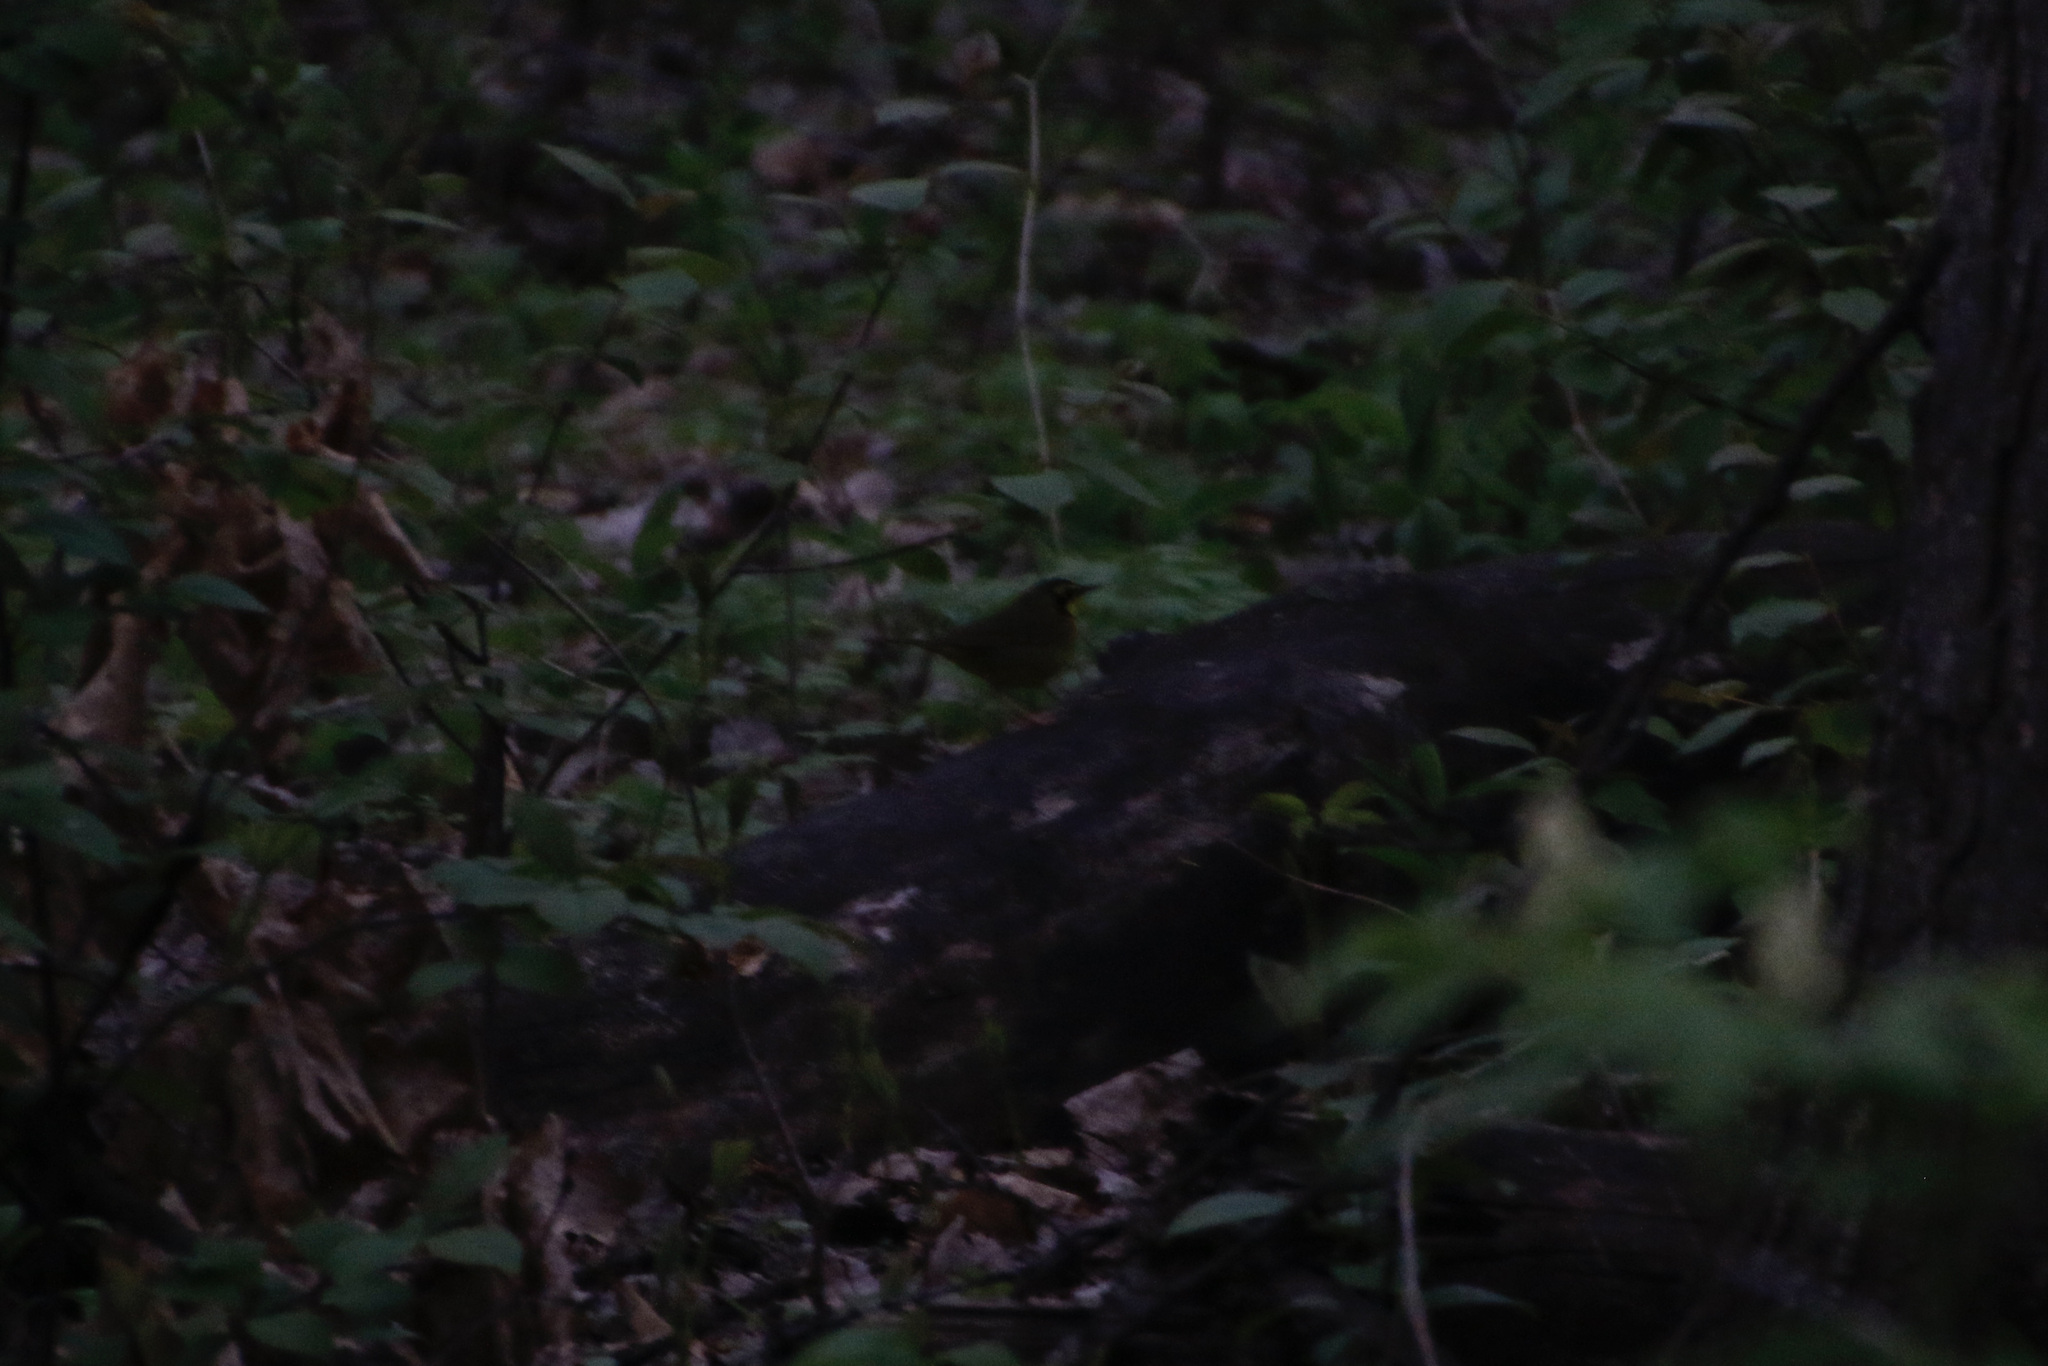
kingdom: Animalia
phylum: Chordata
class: Aves
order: Passeriformes
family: Parulidae
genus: Geothlypis
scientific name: Geothlypis formosa
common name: Kentucky warbler
